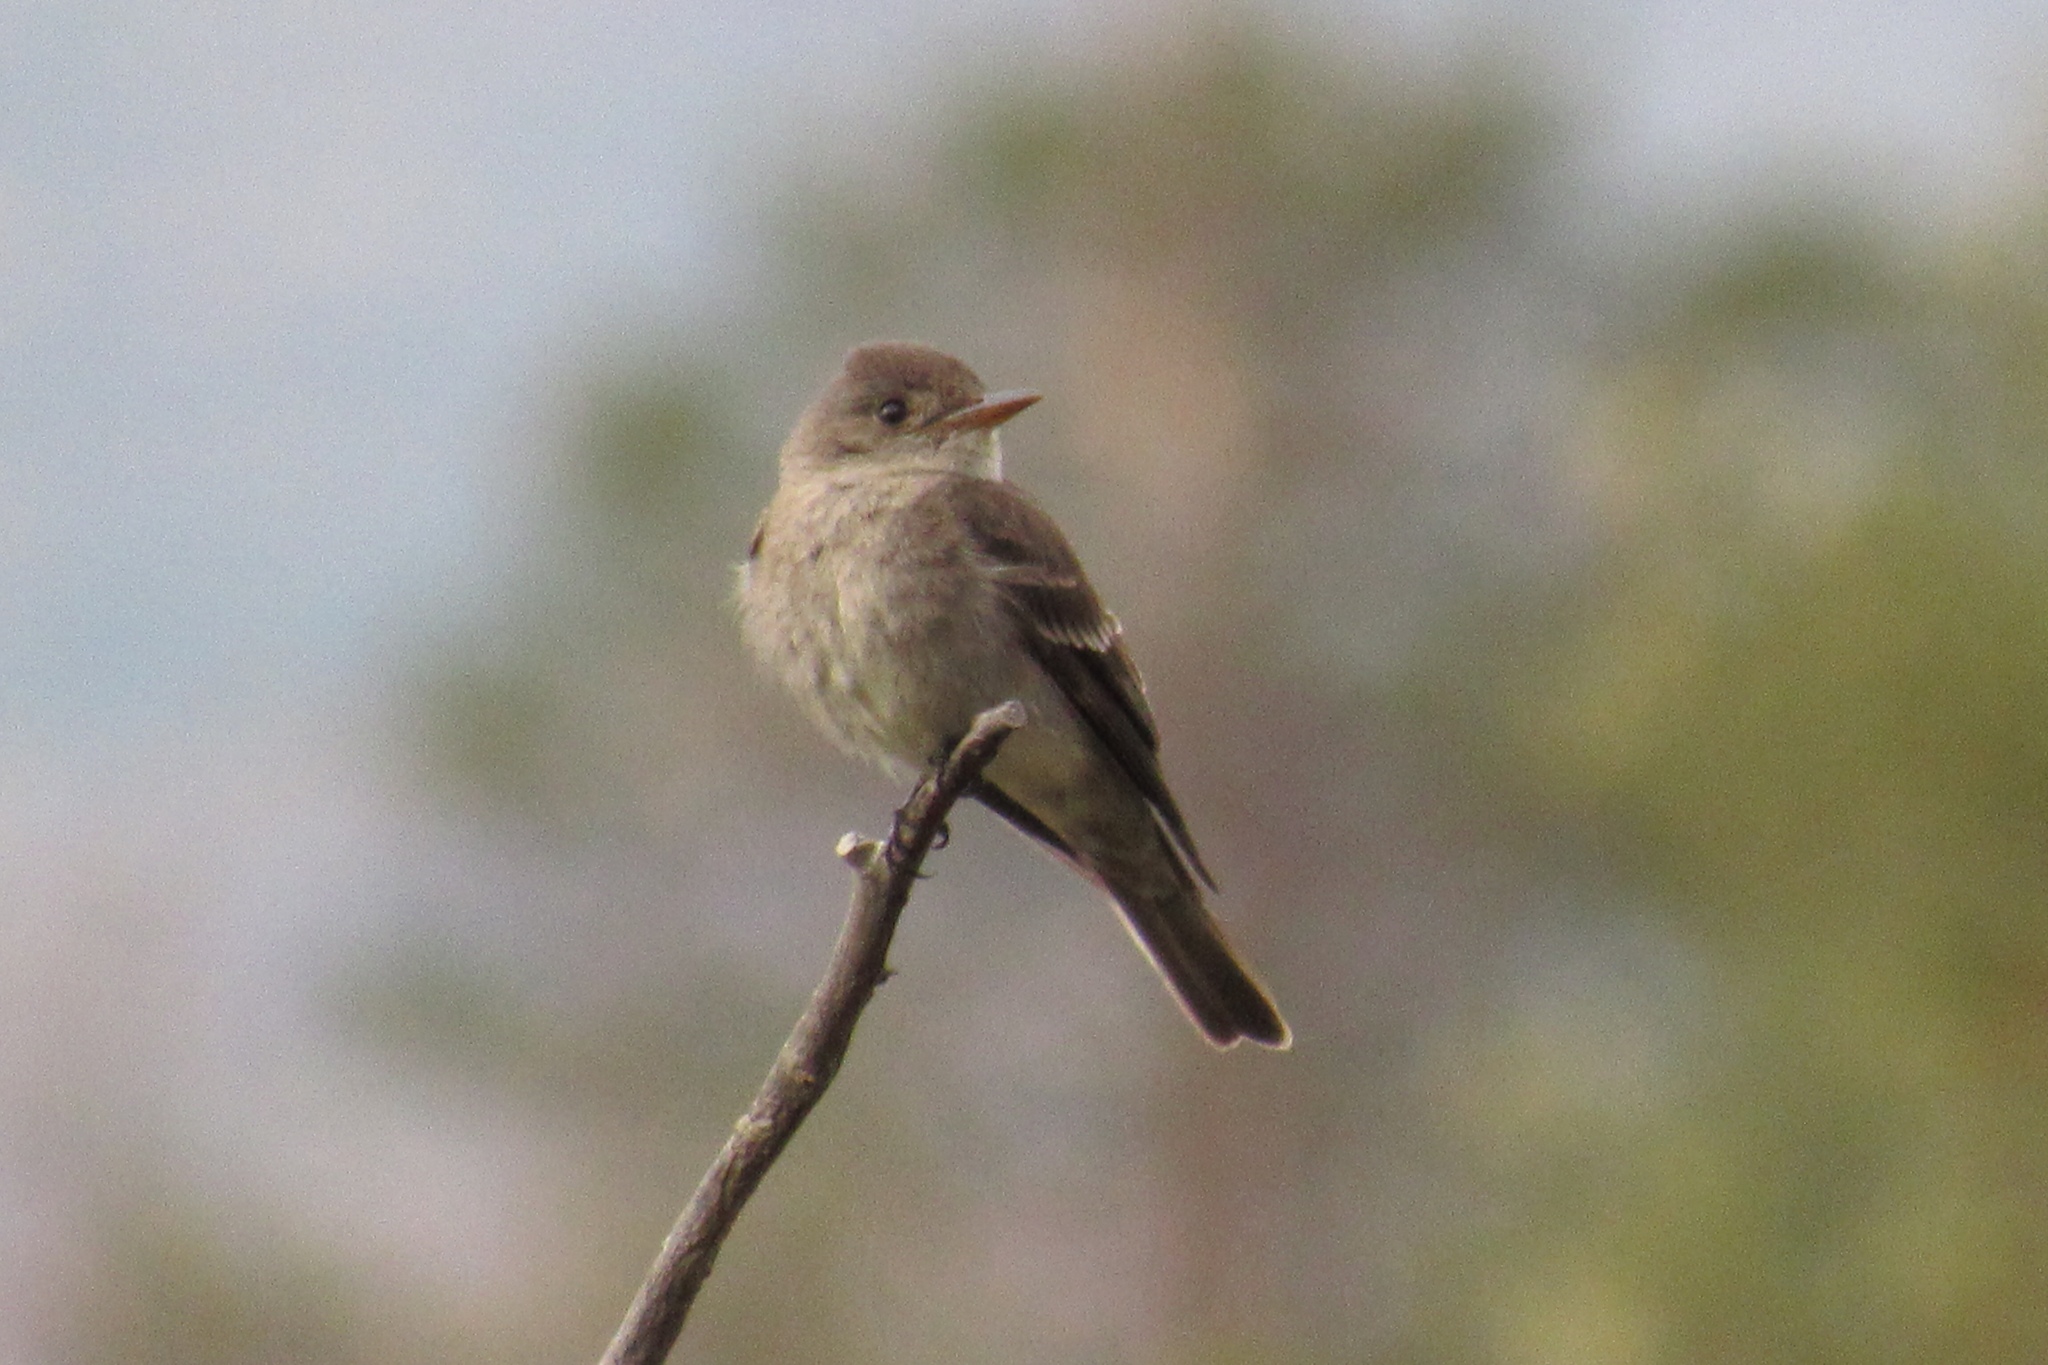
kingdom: Animalia
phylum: Chordata
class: Aves
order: Passeriformes
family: Tyrannidae
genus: Contopus
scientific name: Contopus sordidulus
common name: Western wood-pewee
